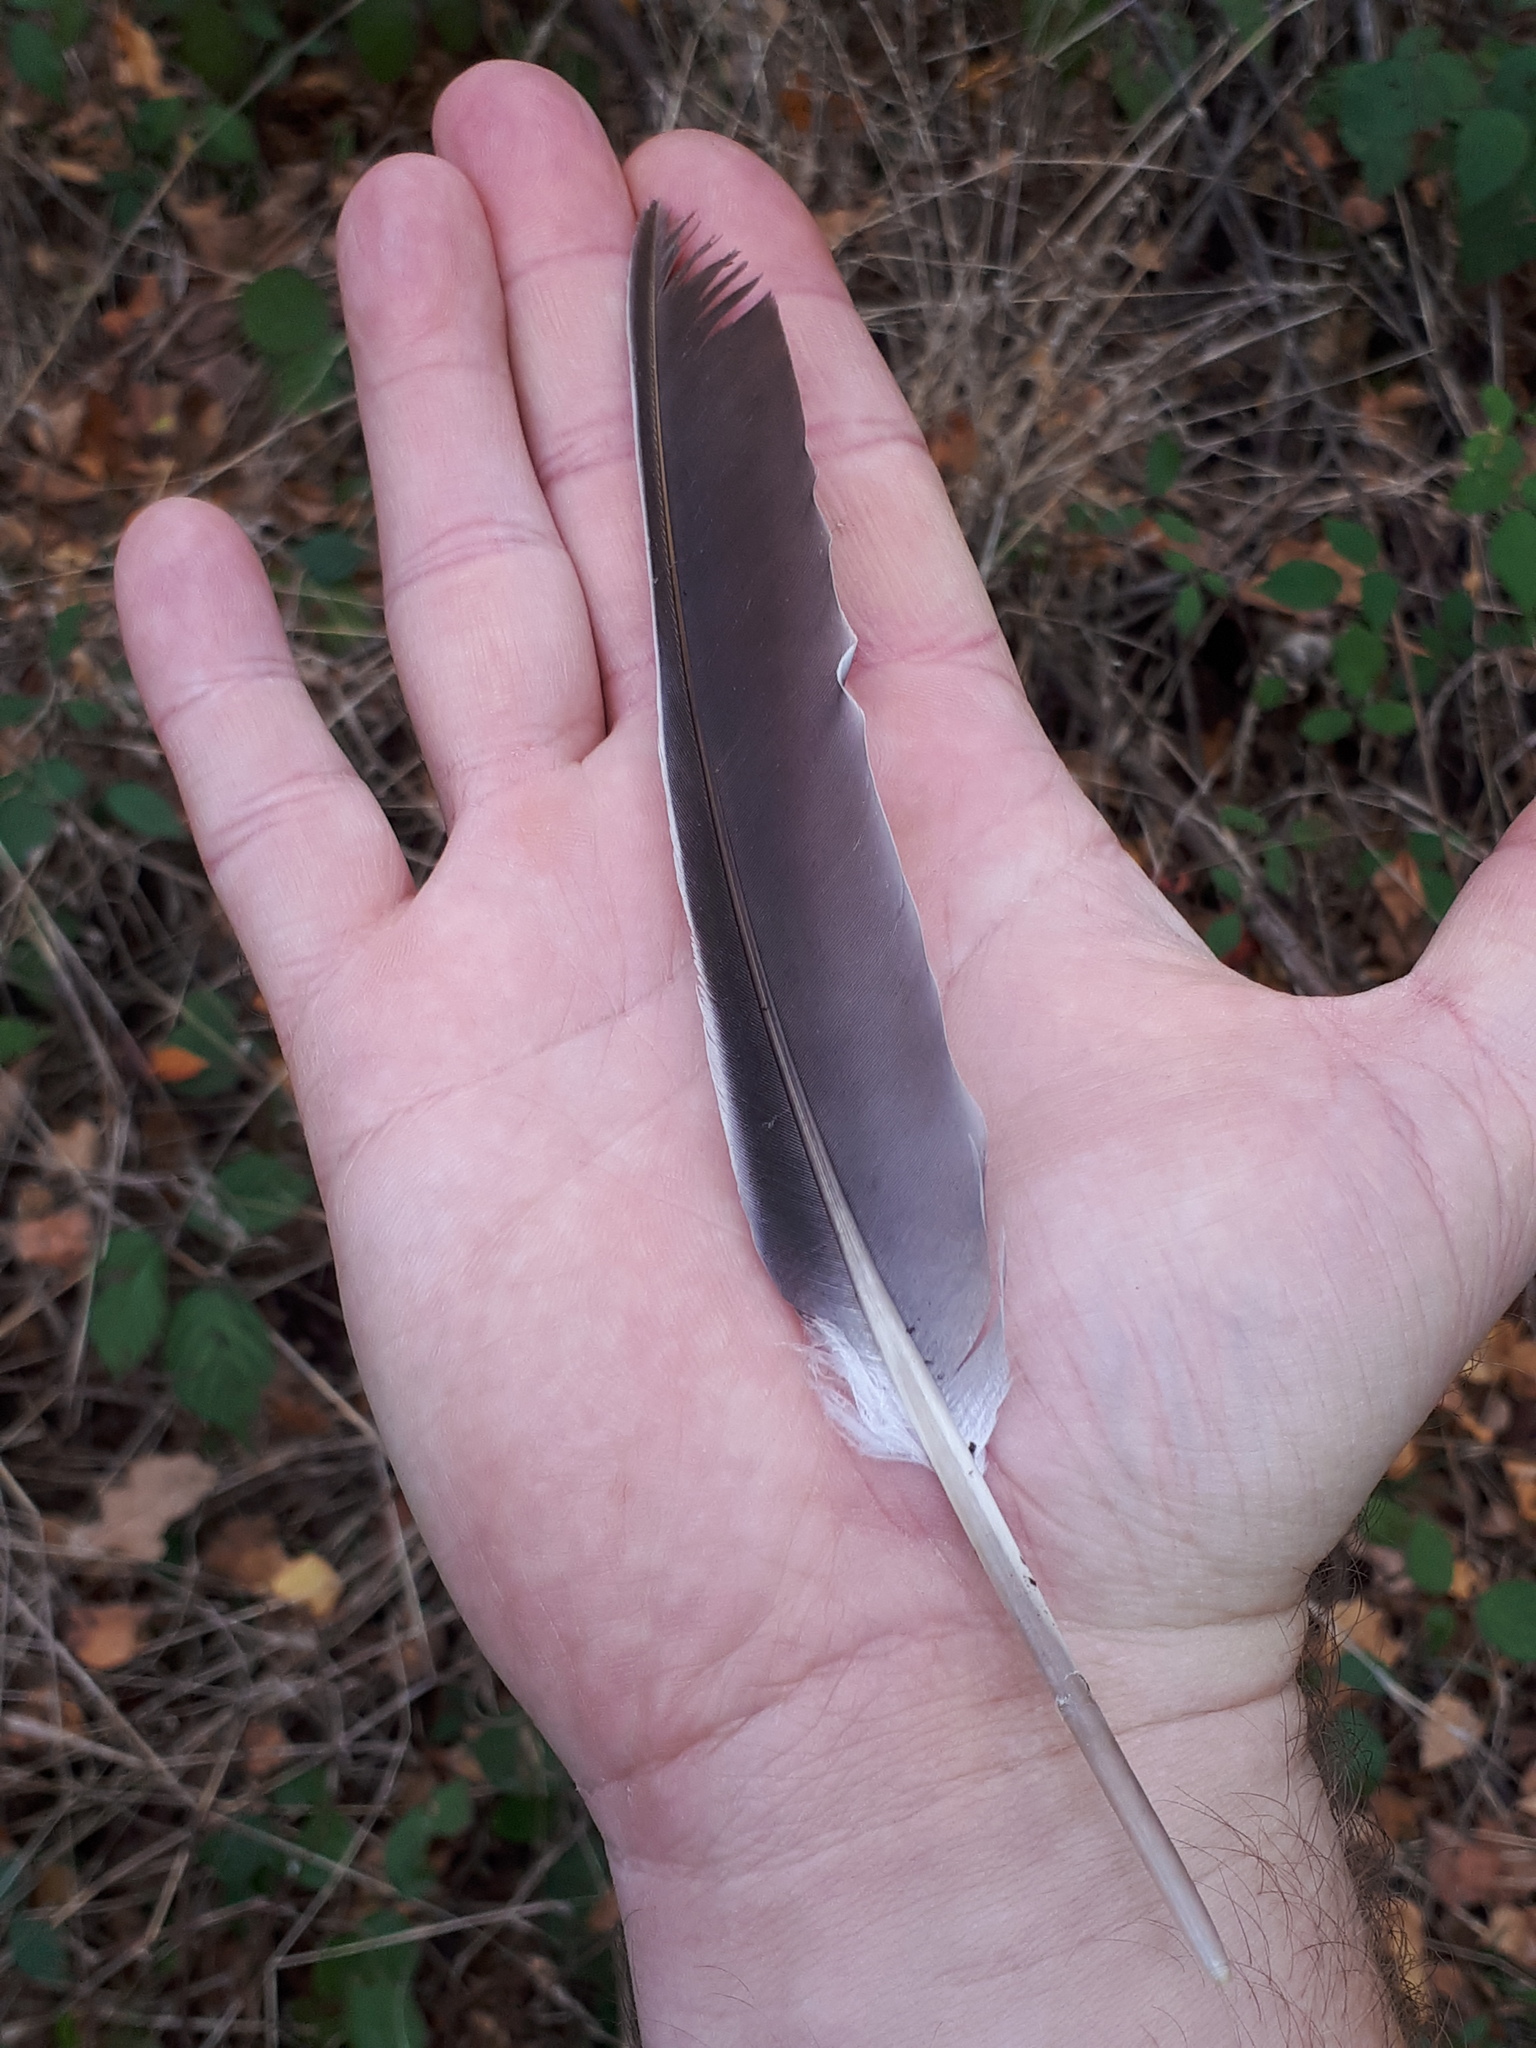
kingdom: Animalia
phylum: Chordata
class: Aves
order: Columbiformes
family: Columbidae
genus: Columba
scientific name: Columba palumbus
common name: Common wood pigeon
